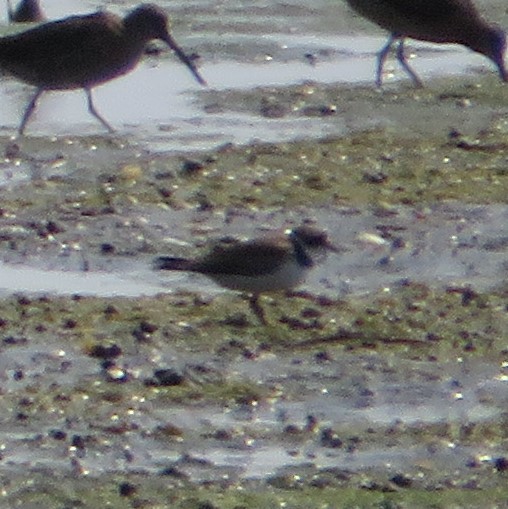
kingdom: Animalia
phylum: Chordata
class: Aves
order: Charadriiformes
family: Charadriidae
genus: Charadrius
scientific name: Charadrius semipalmatus
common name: Semipalmated plover
